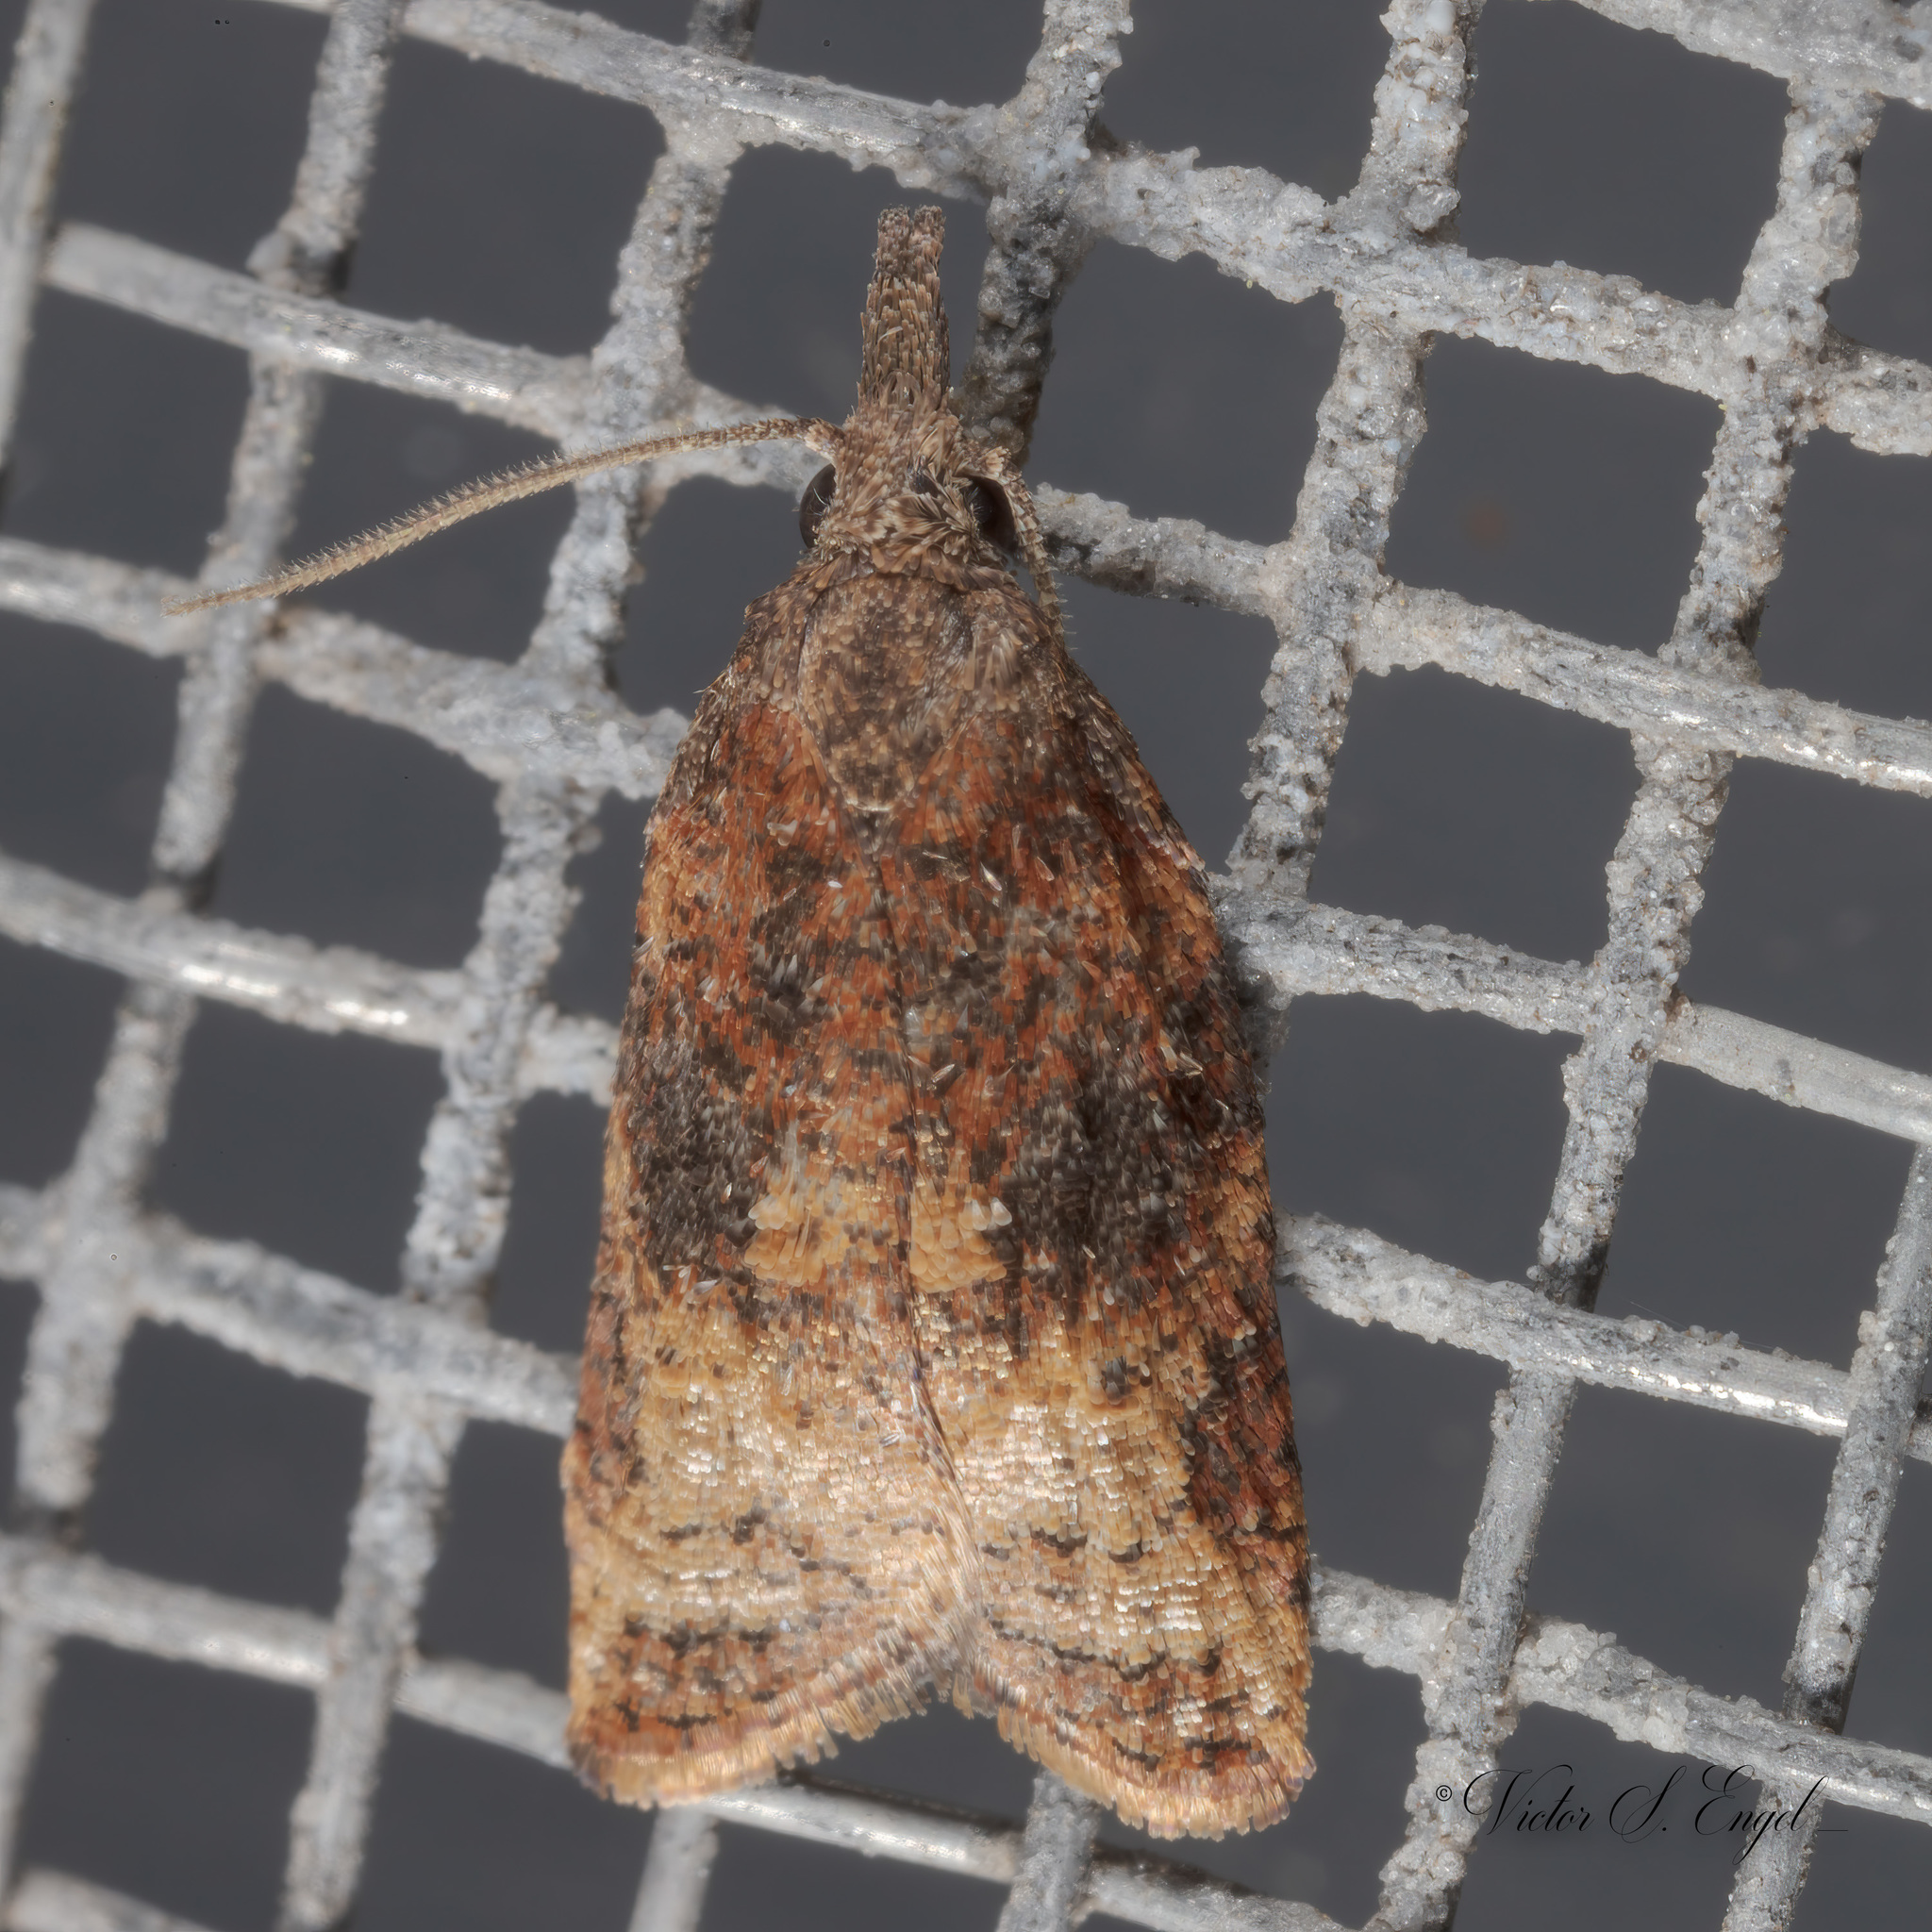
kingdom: Animalia
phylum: Arthropoda
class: Insecta
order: Lepidoptera
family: Tortricidae
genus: Platynota
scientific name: Platynota stultana
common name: Omnivorous leafroller
